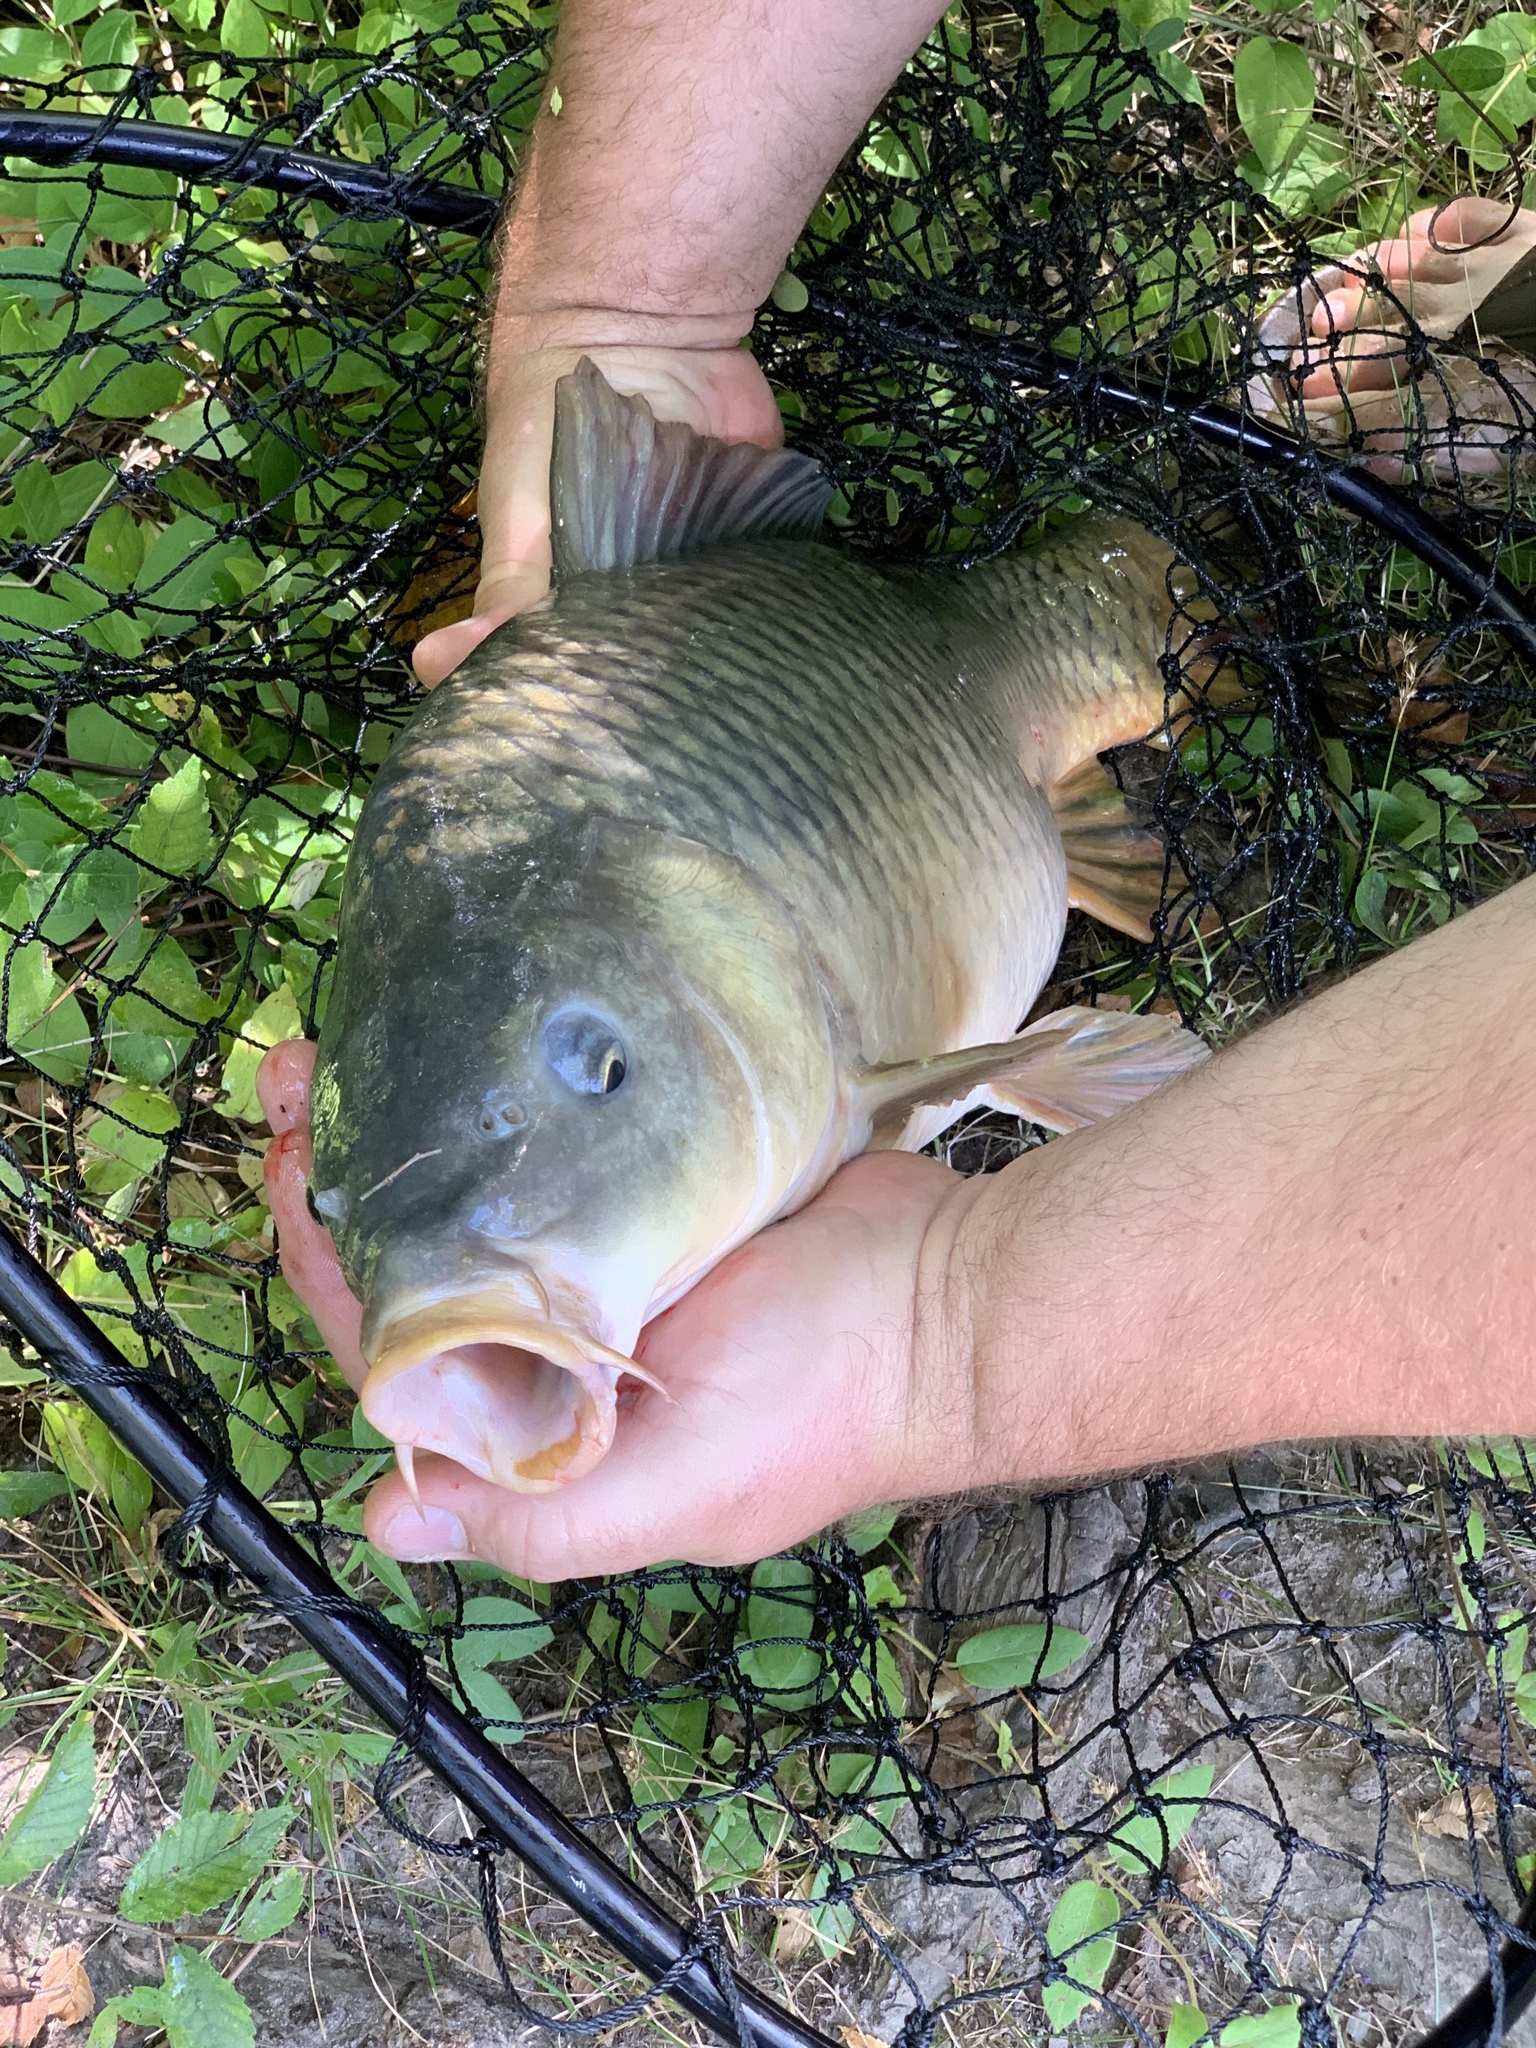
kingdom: Animalia
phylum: Chordata
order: Cypriniformes
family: Cyprinidae
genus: Cyprinus
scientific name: Cyprinus carpio
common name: Common carp
